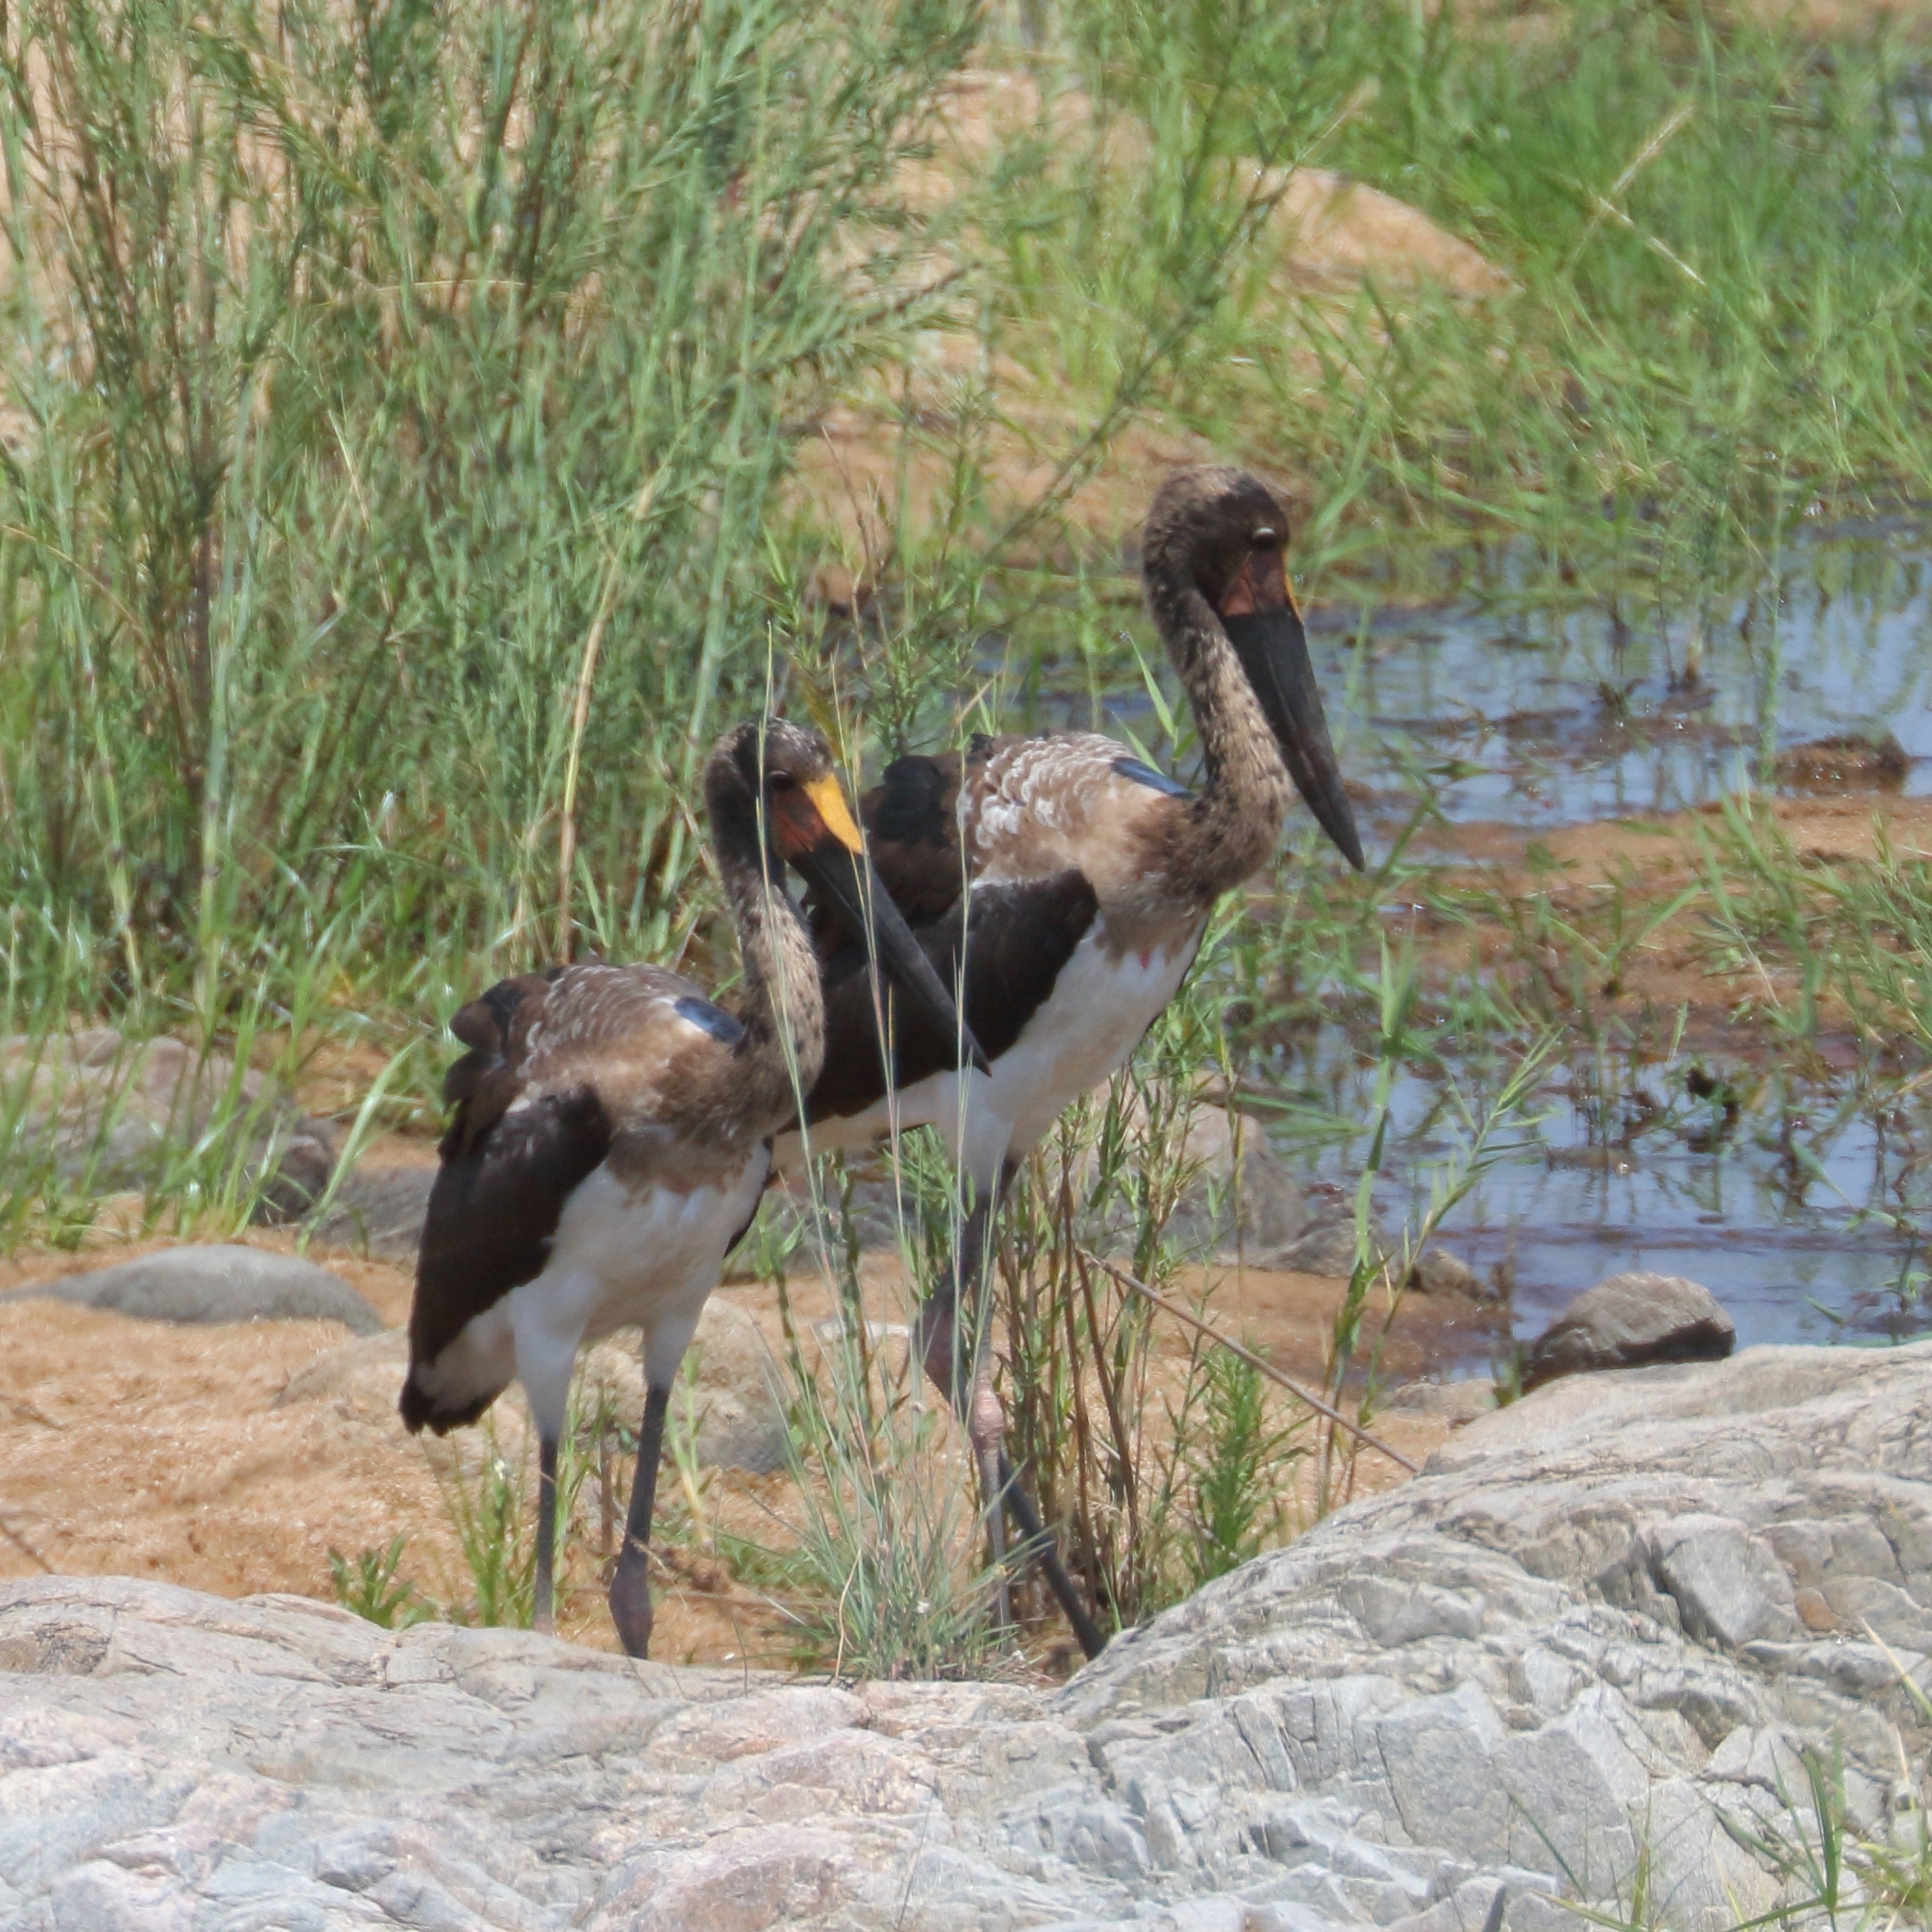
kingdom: Animalia
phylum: Chordata
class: Aves
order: Ciconiiformes
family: Ciconiidae
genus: Ephippiorhynchus
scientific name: Ephippiorhynchus senegalensis
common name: Saddle-billed stork
